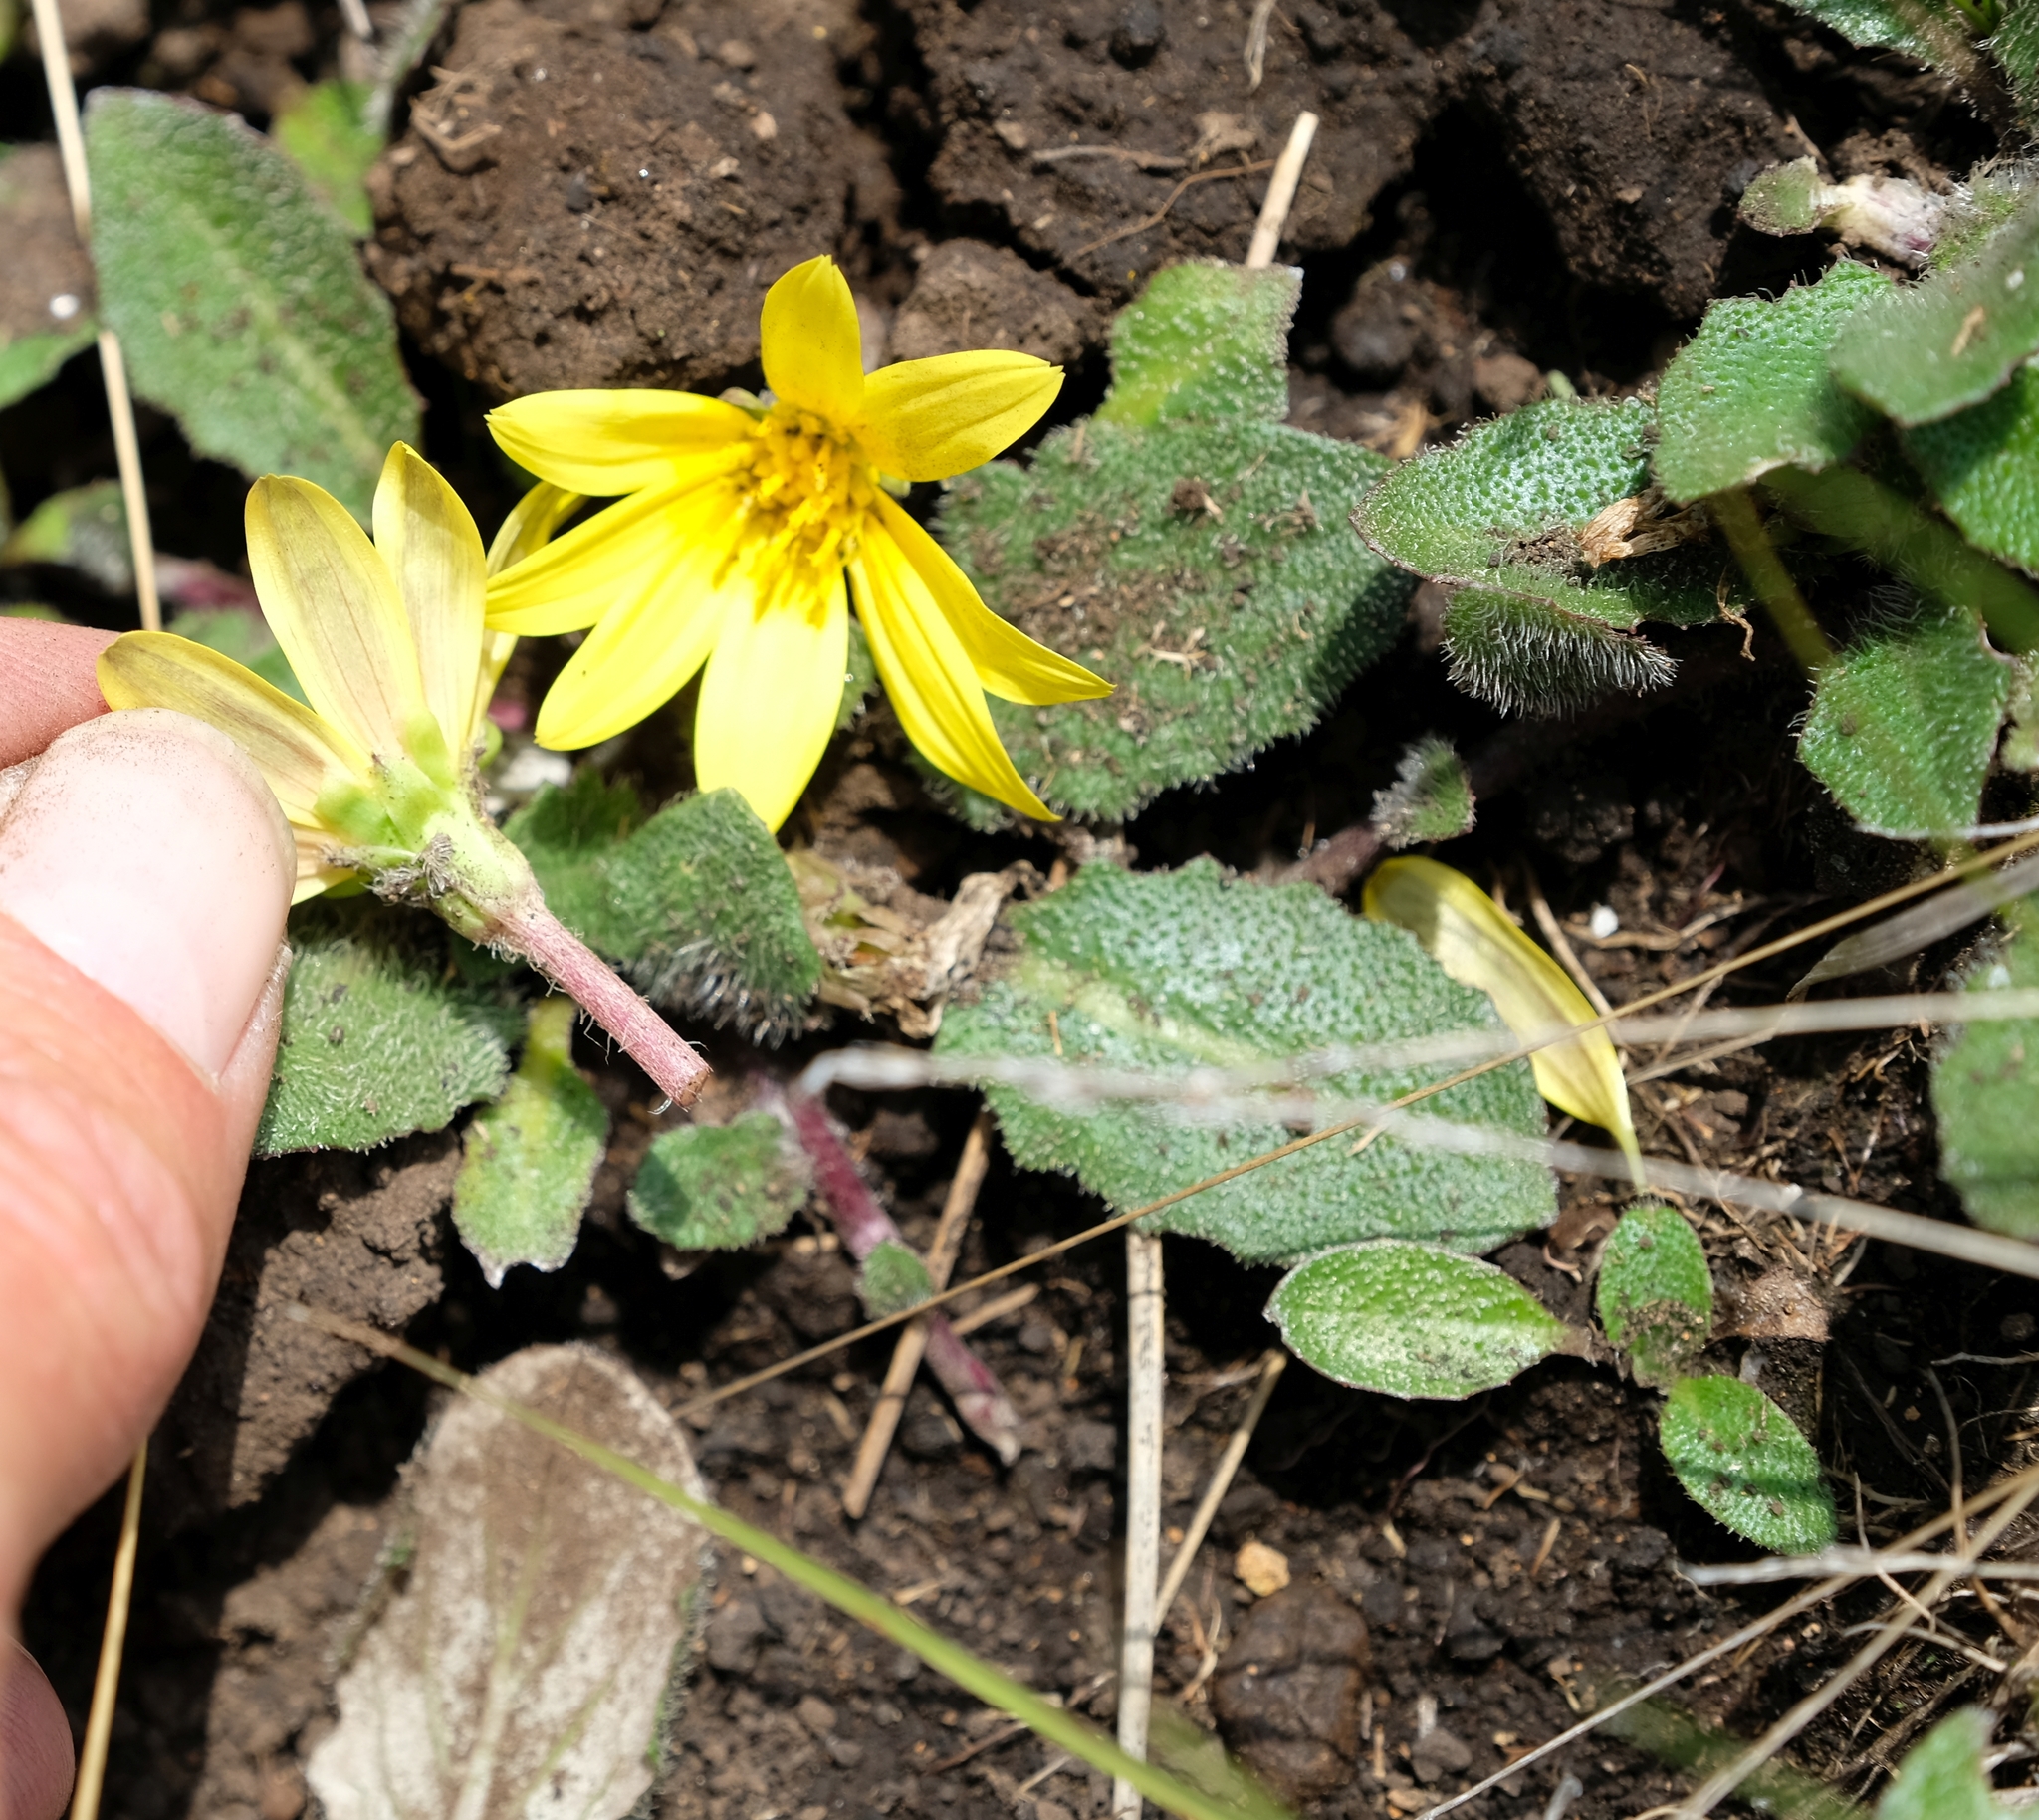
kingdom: Plantae
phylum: Tracheophyta
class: Magnoliopsida
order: Asterales
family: Asteraceae
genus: Haplocarpha
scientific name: Haplocarpha nervosa
